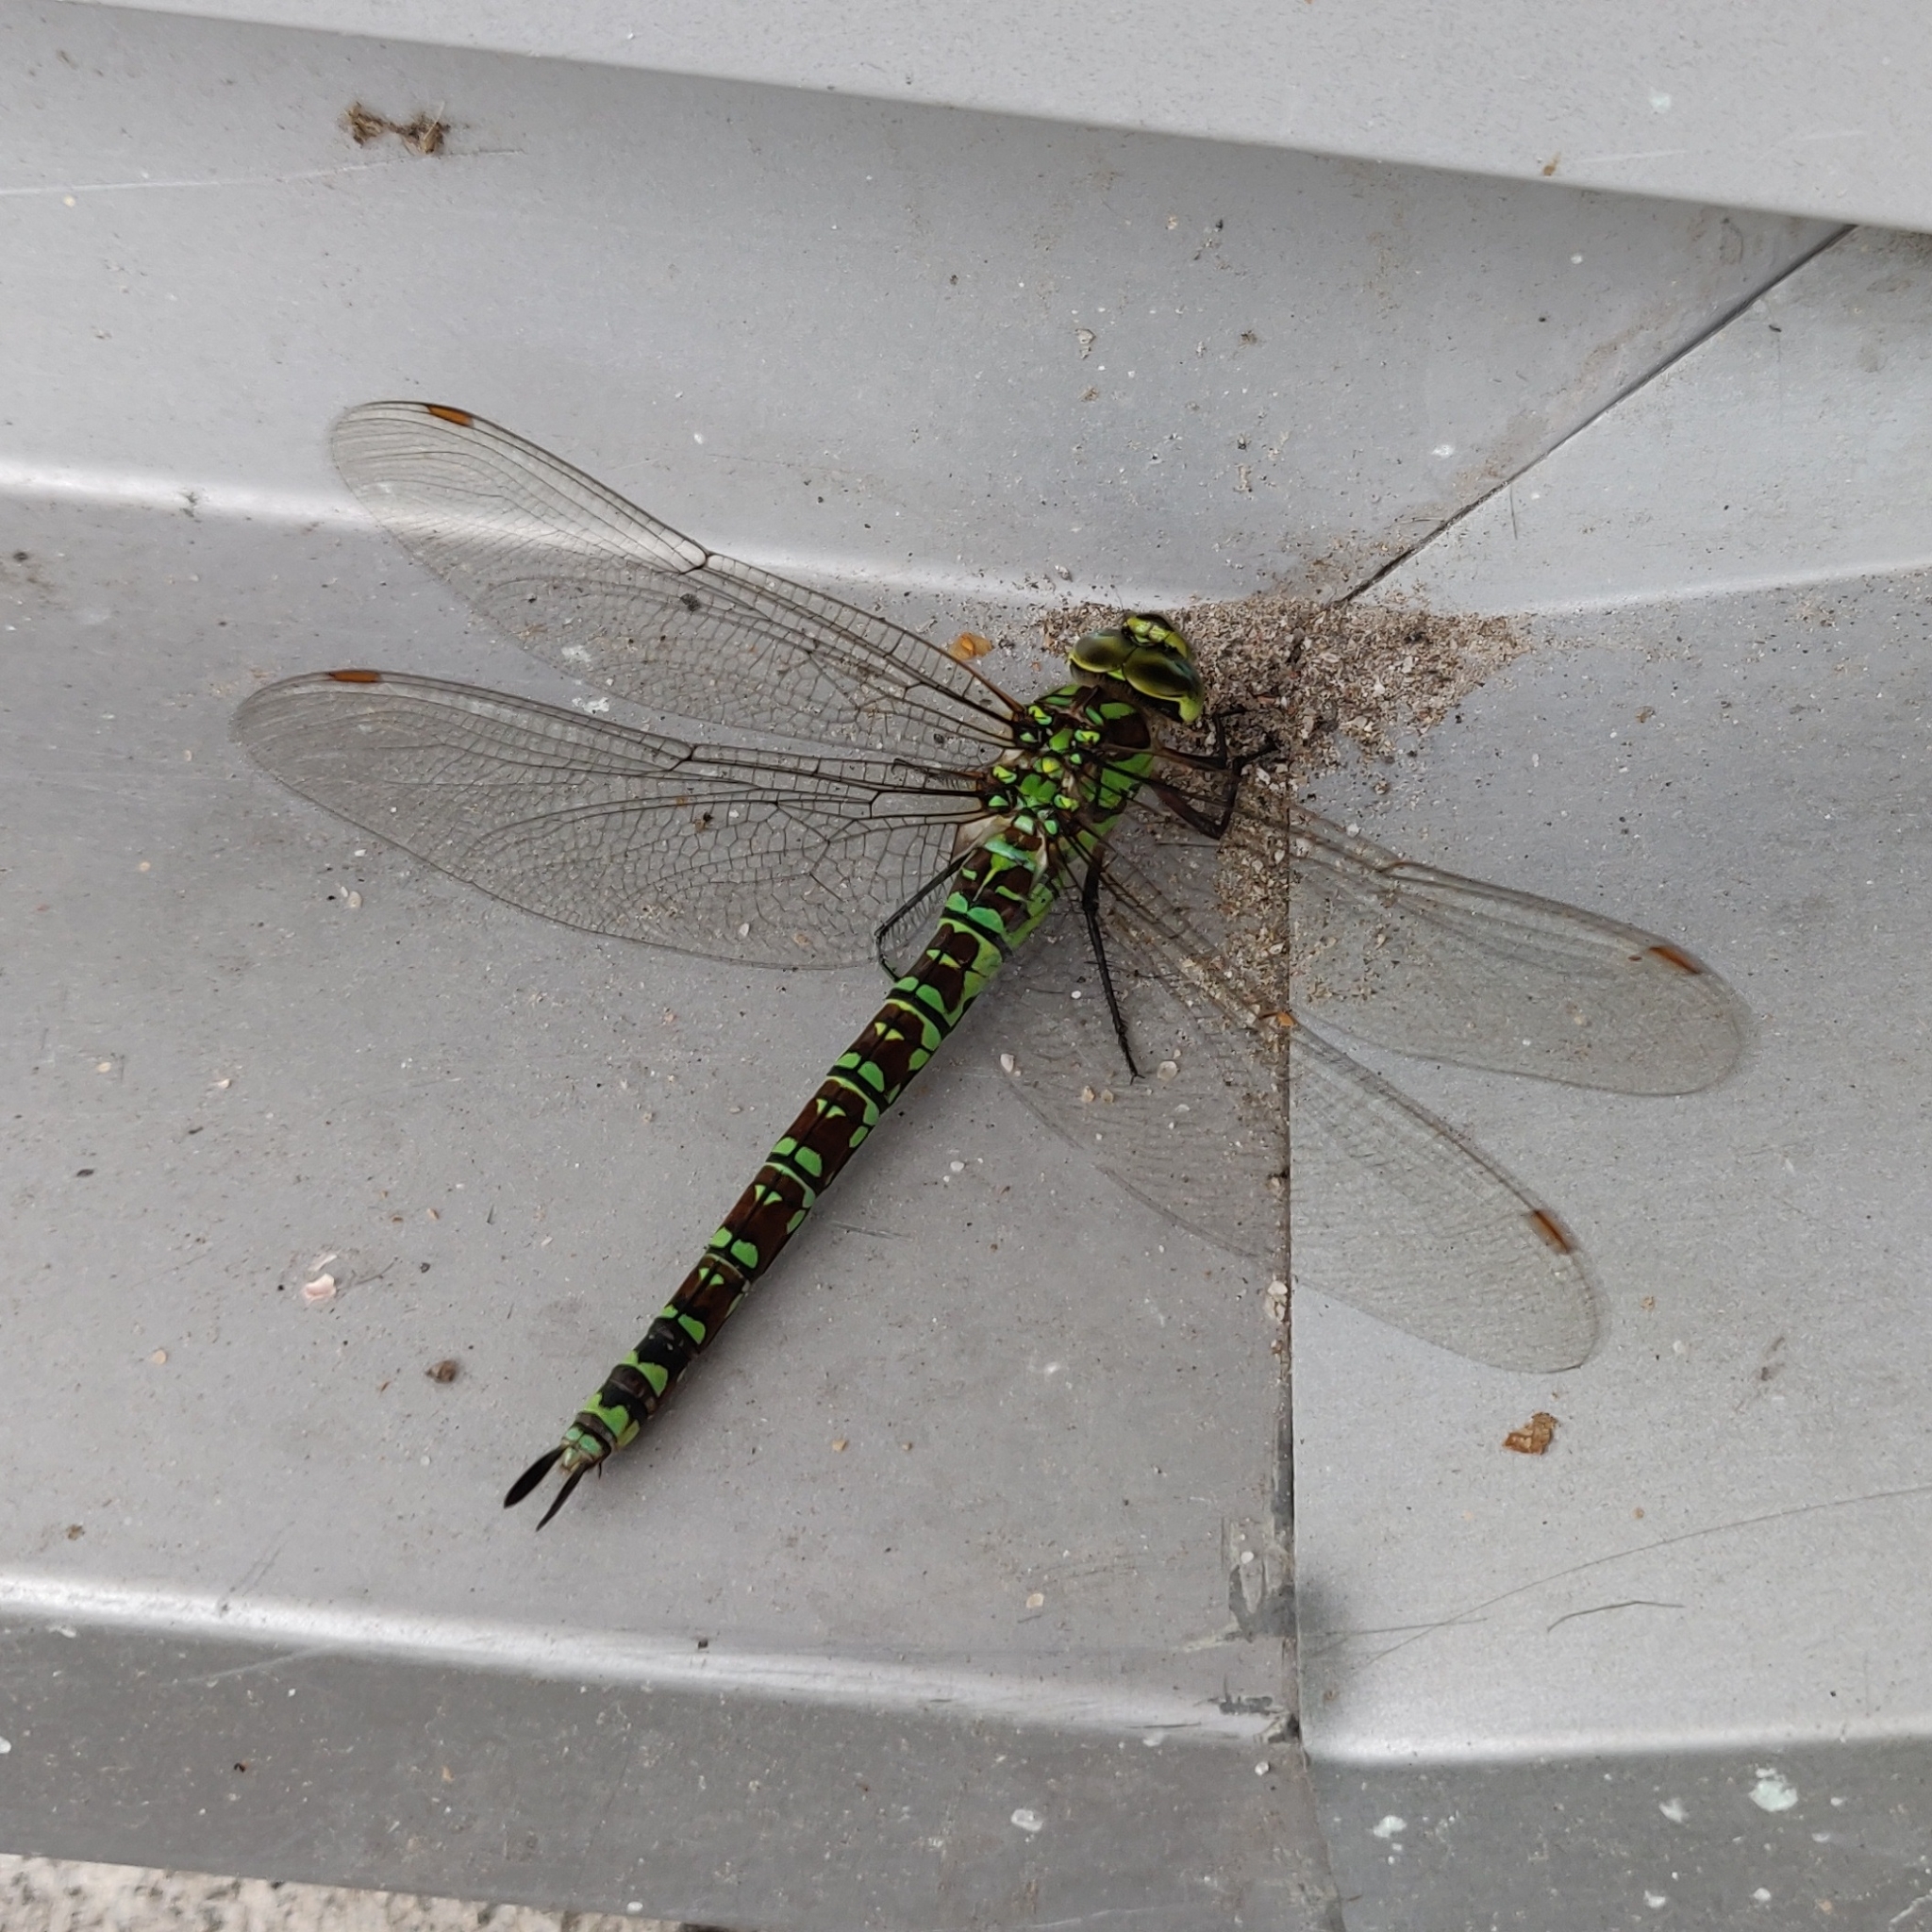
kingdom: Animalia
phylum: Arthropoda
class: Insecta
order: Odonata
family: Aeshnidae
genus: Aeshna
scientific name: Aeshna cyanea
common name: Southern hawker
